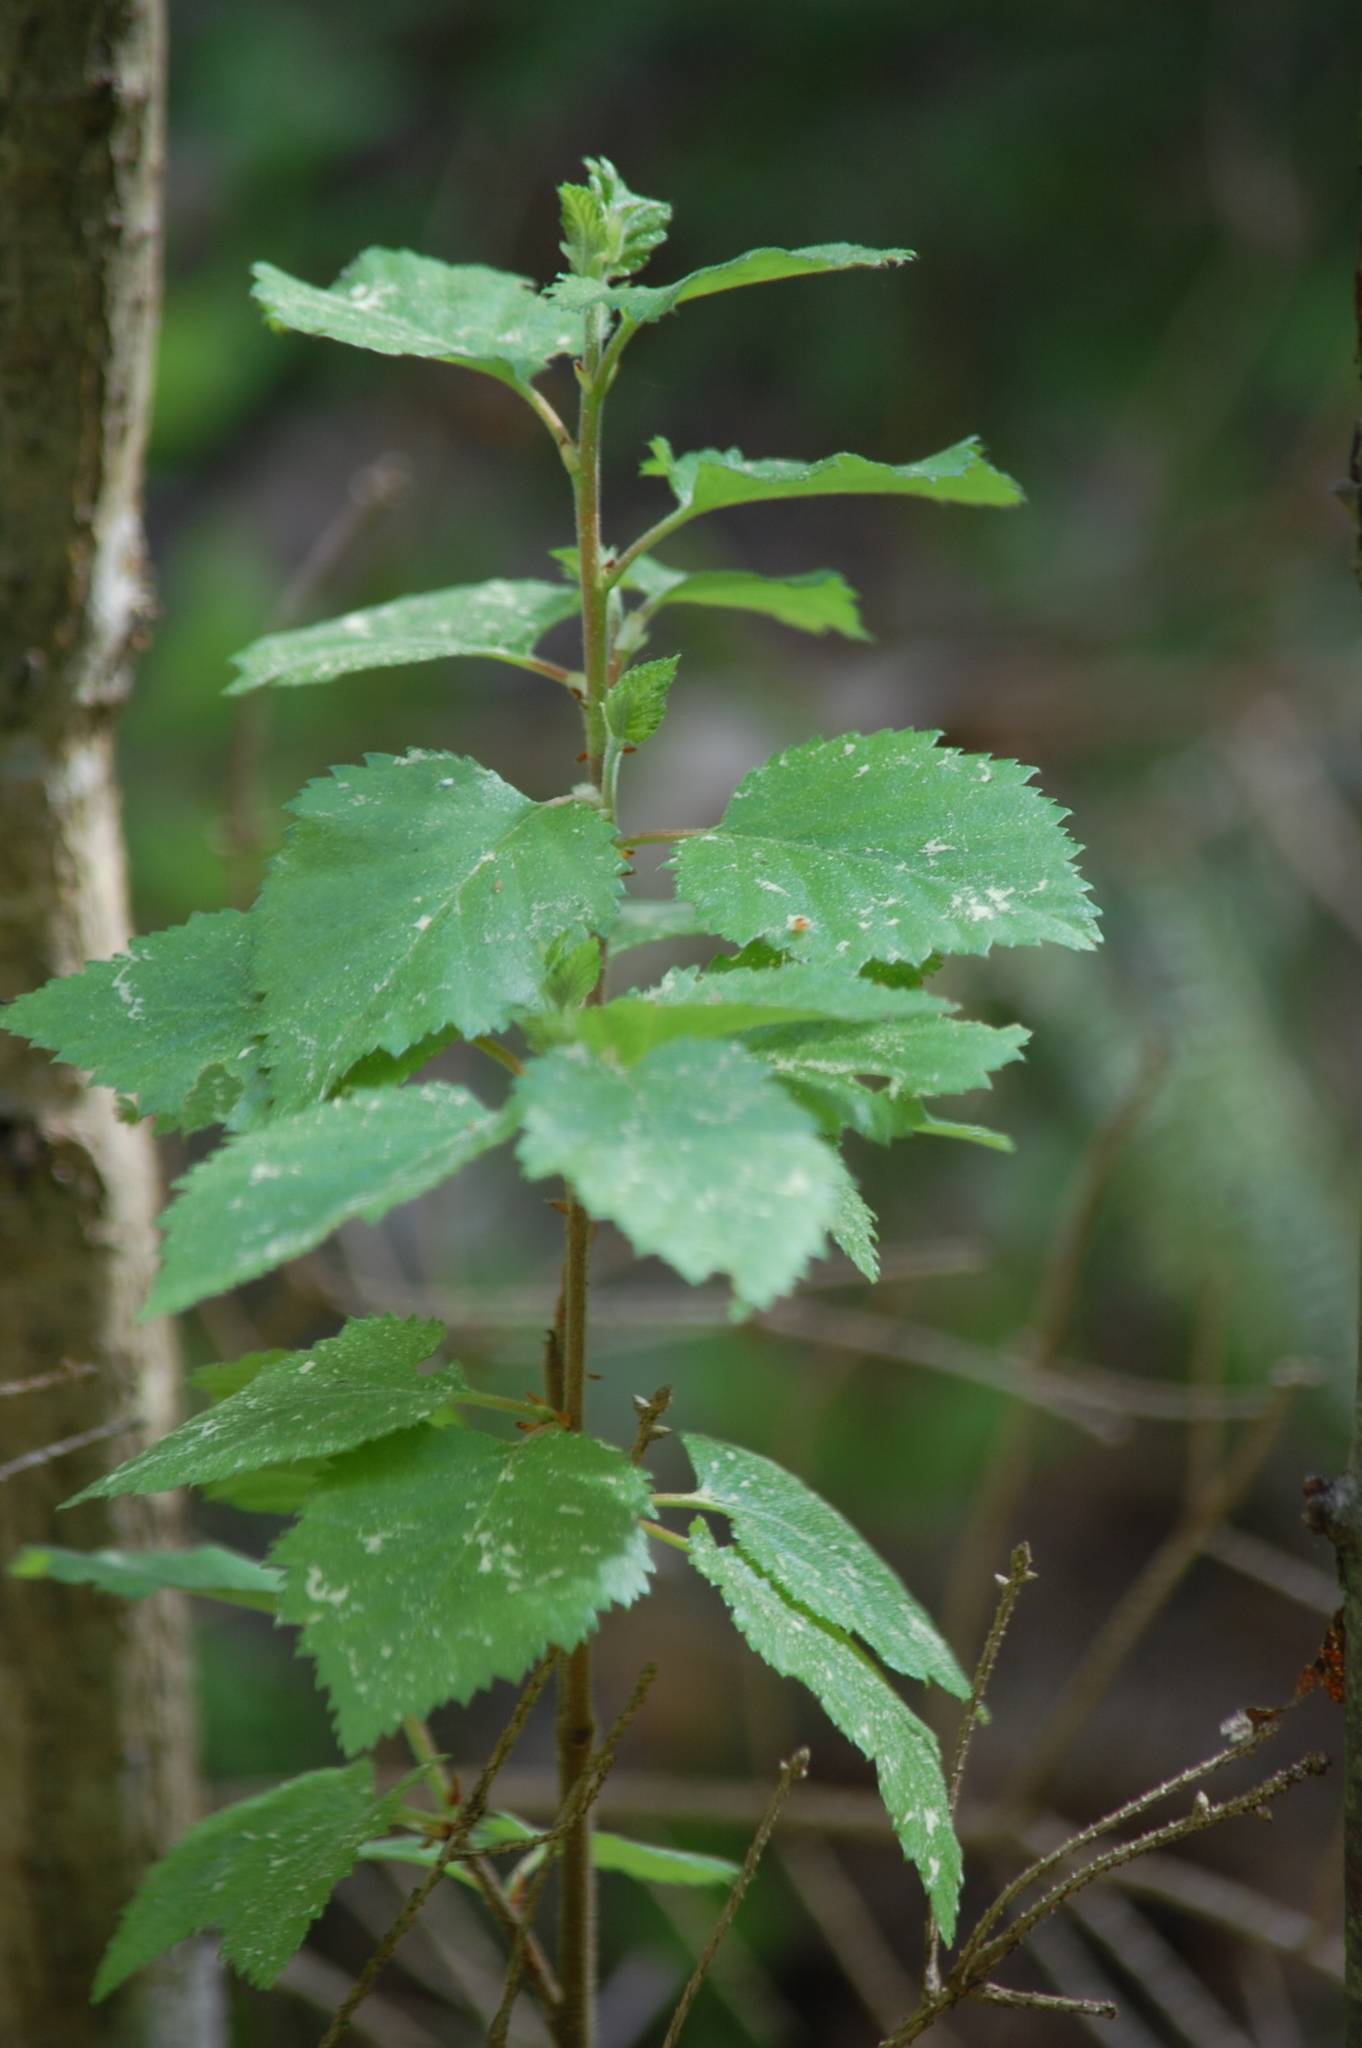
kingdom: Plantae
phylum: Tracheophyta
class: Magnoliopsida
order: Fagales
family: Betulaceae
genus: Betula
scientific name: Betula pubescens
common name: Downy birch
